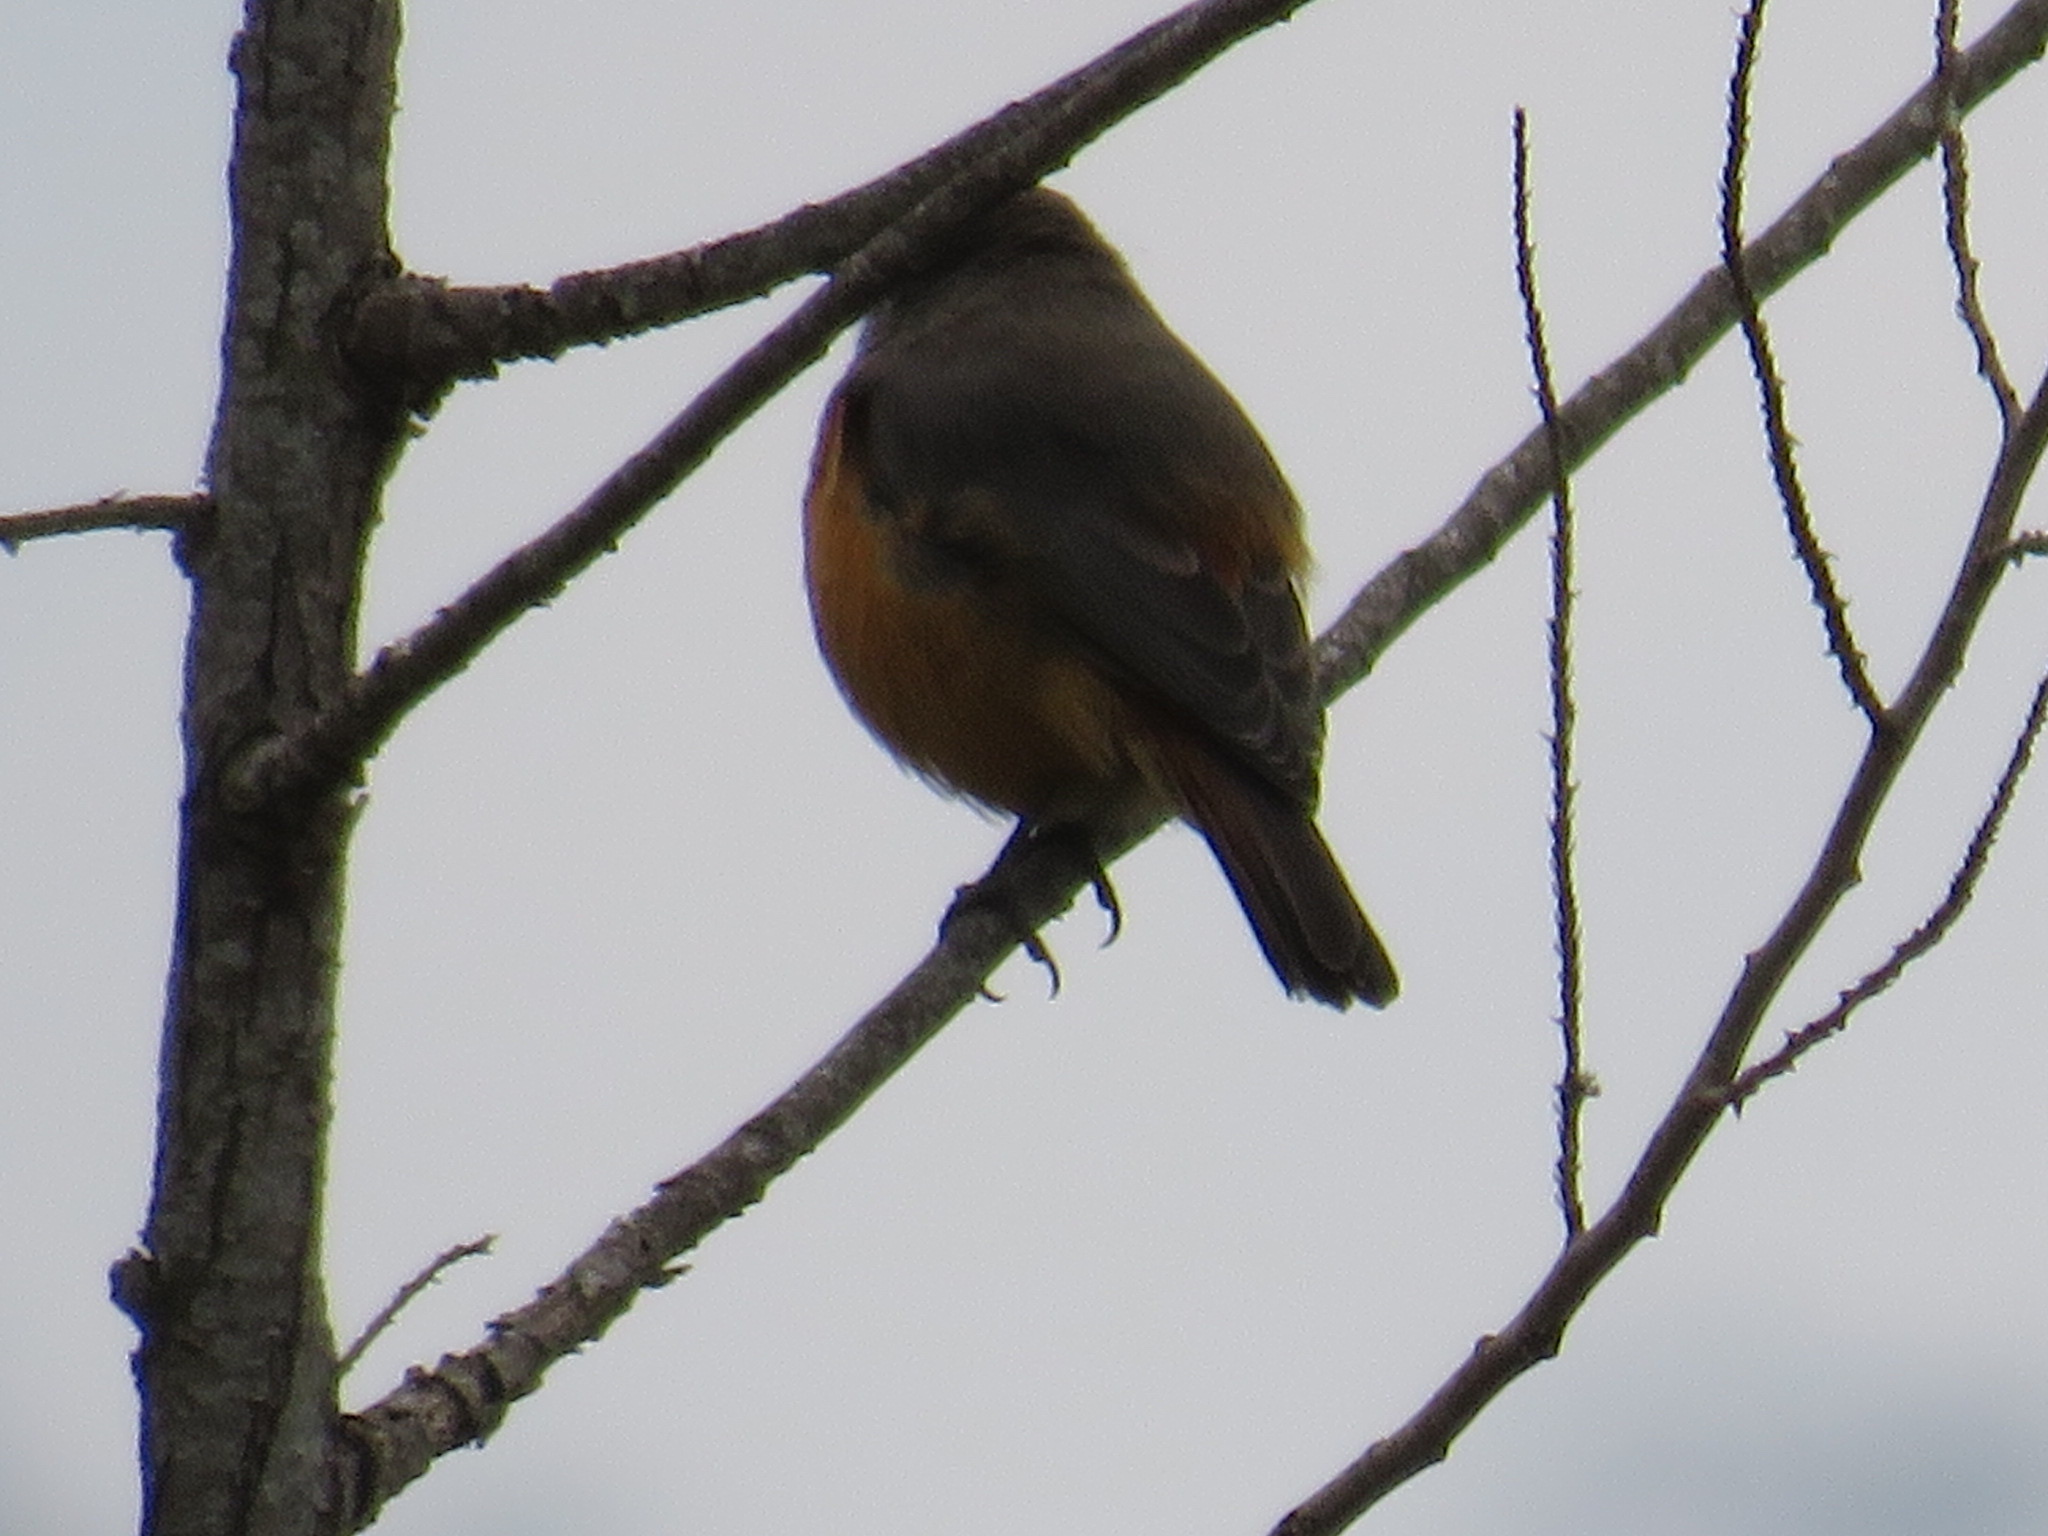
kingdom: Animalia
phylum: Chordata
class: Aves
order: Passeriformes
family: Muscicapidae
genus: Monticola
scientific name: Monticola rufocinereus
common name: Little rock thrush
